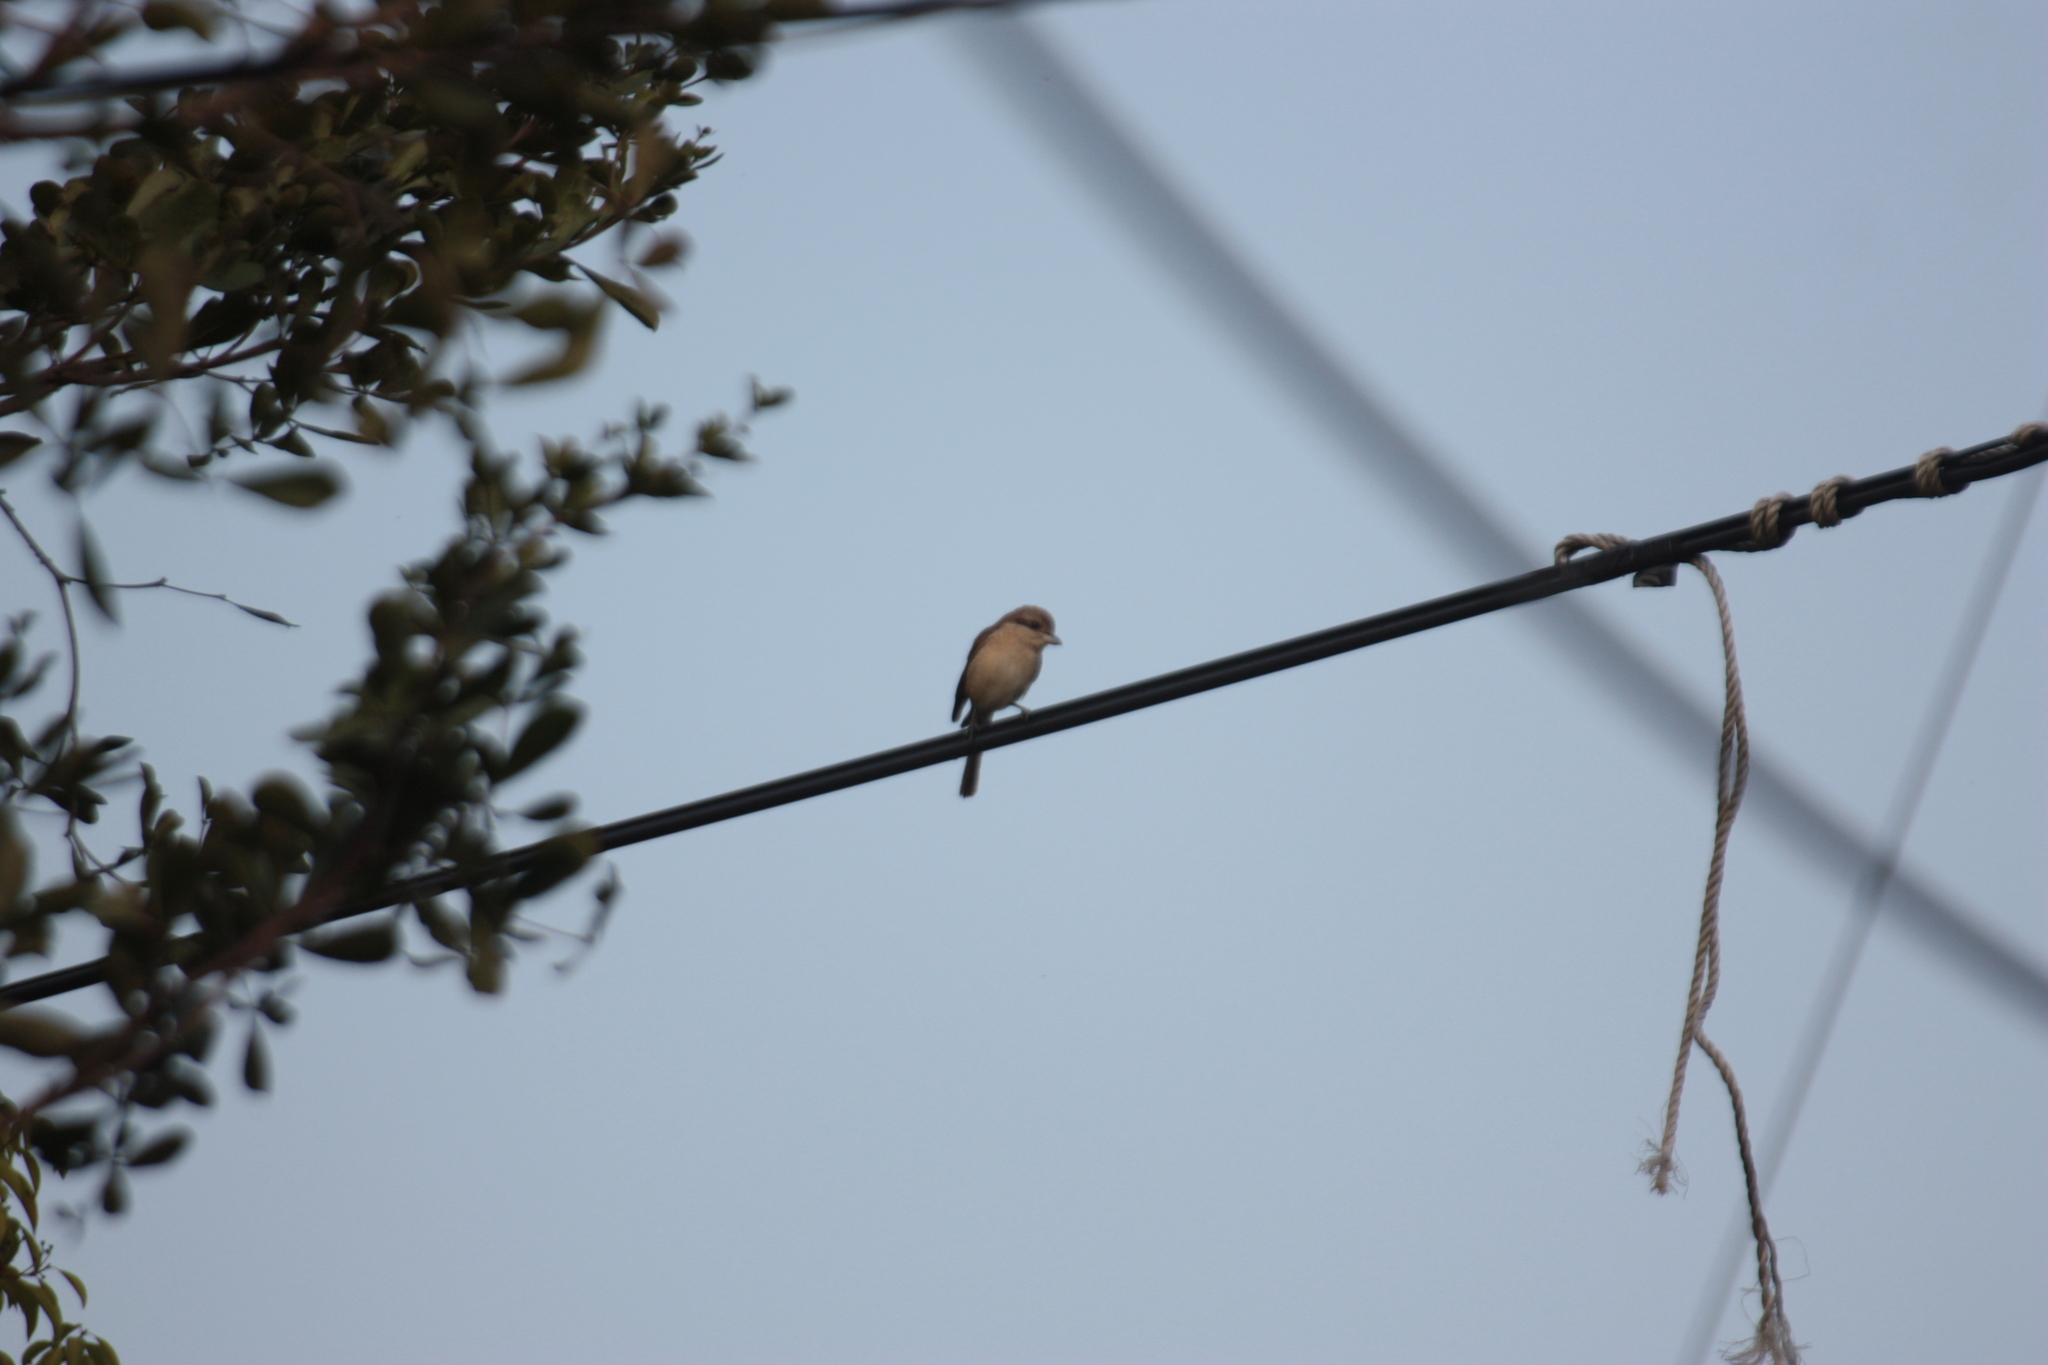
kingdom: Animalia
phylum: Chordata
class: Aves
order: Passeriformes
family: Laniidae
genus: Lanius
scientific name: Lanius cristatus
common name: Brown shrike
